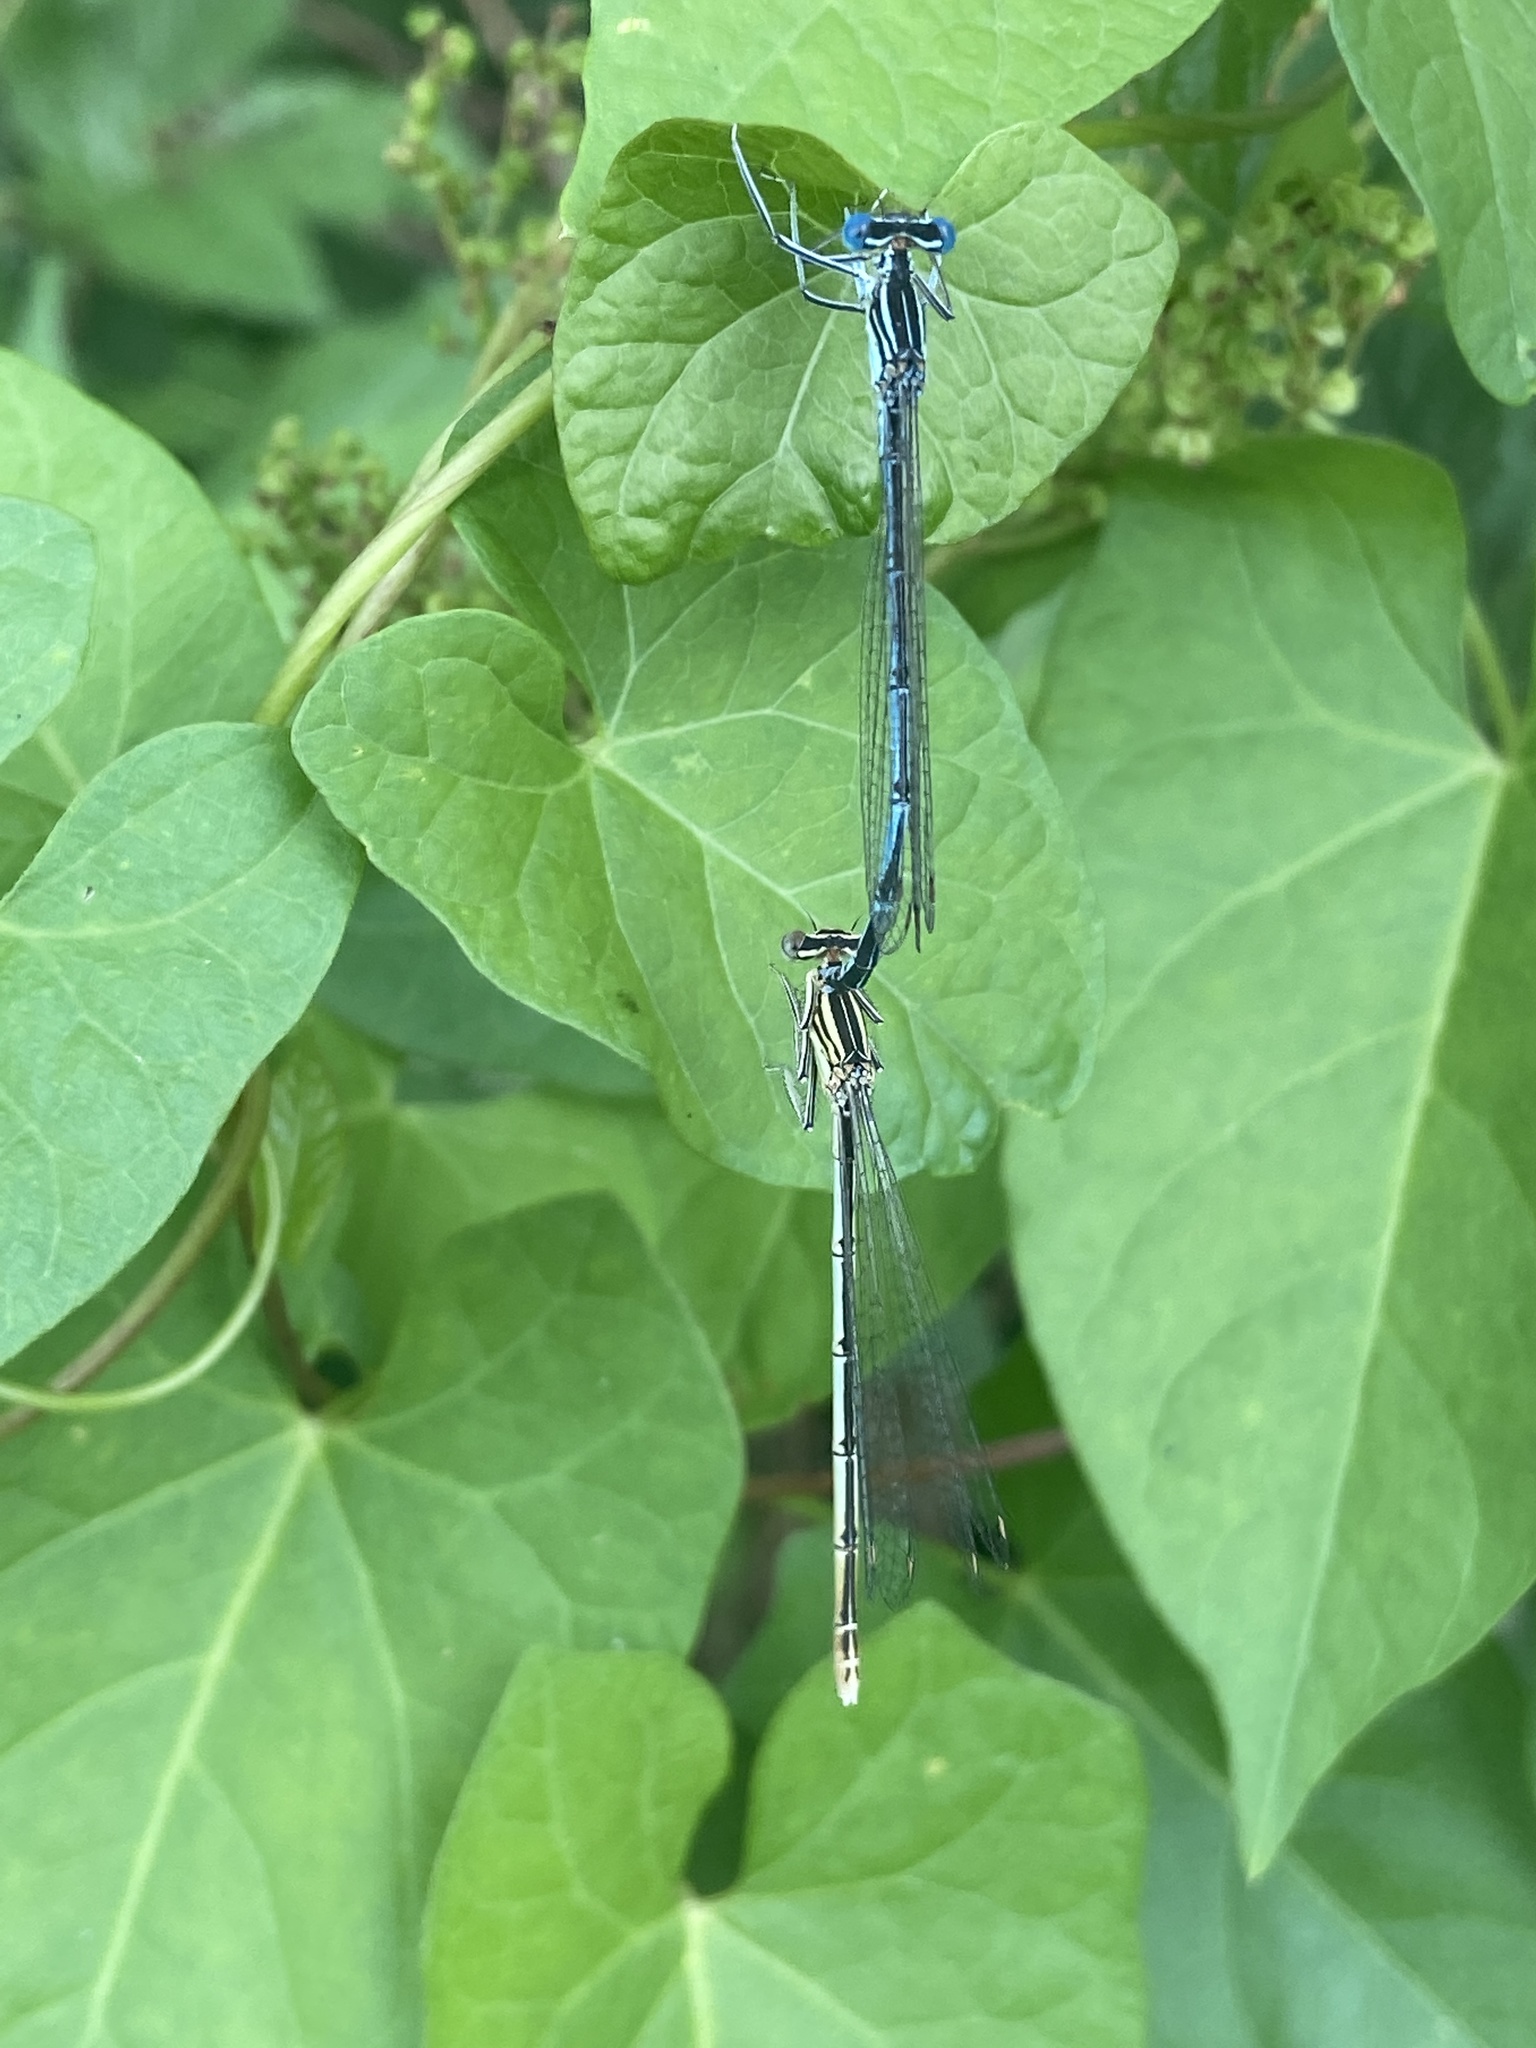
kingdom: Animalia
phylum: Arthropoda
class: Insecta
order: Odonata
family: Platycnemididae
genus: Platycnemis
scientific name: Platycnemis pennipes
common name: White-legged damselfly
